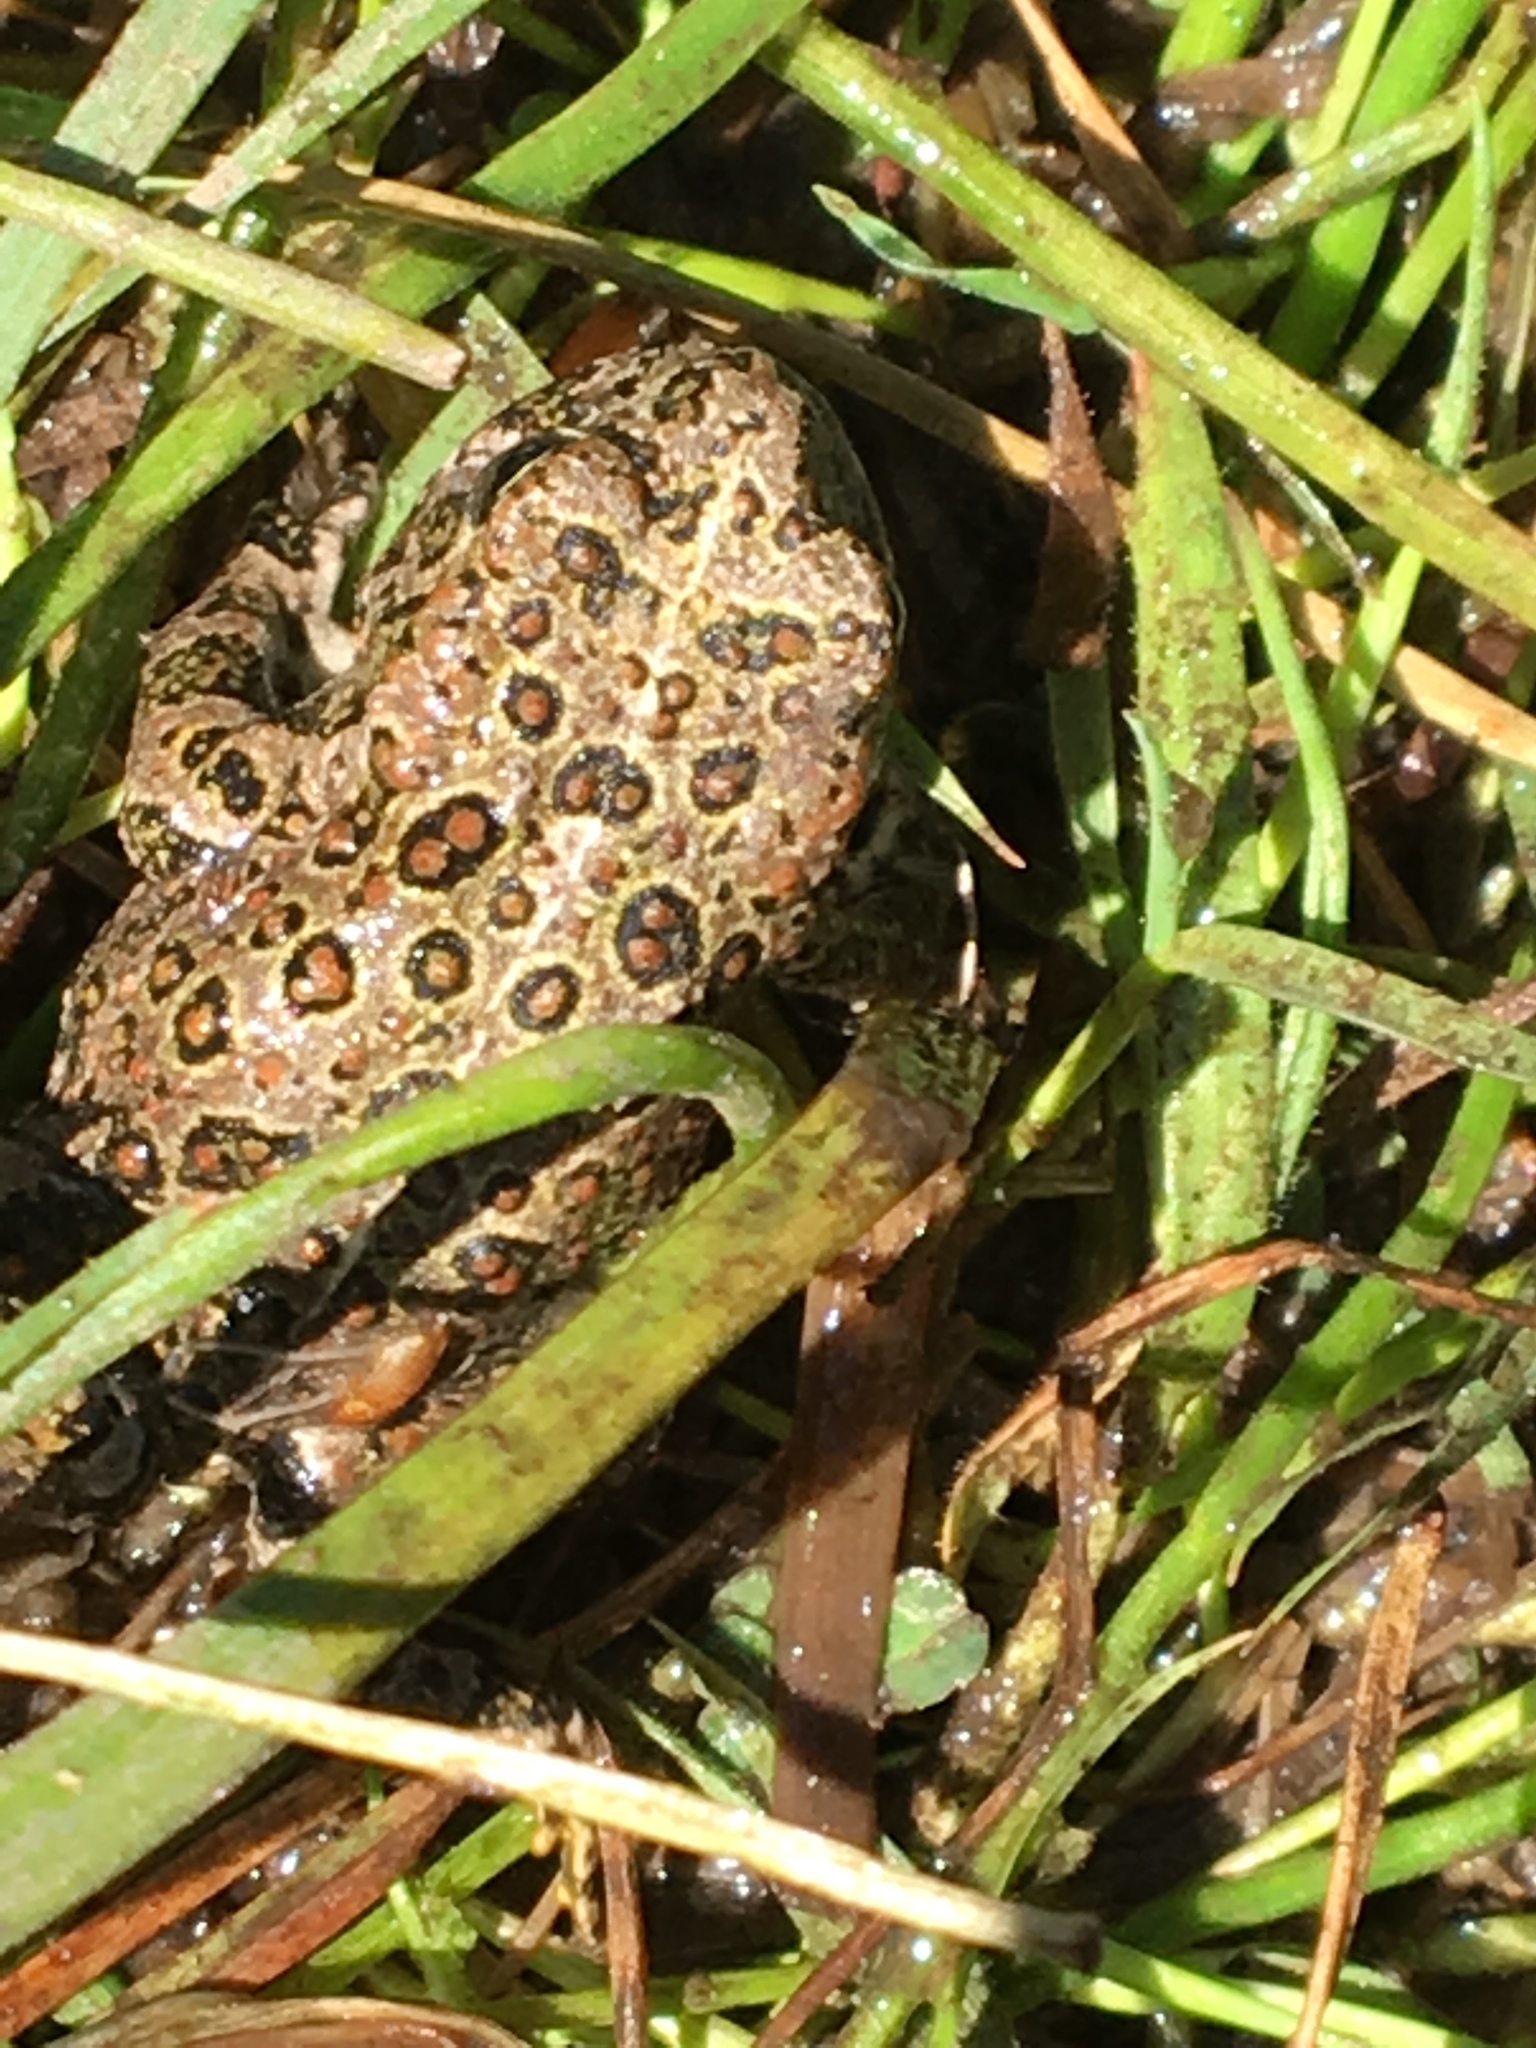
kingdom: Animalia
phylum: Chordata
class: Amphibia
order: Anura
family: Bufonidae
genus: Anaxyrus
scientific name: Anaxyrus boreas
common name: Western toad
